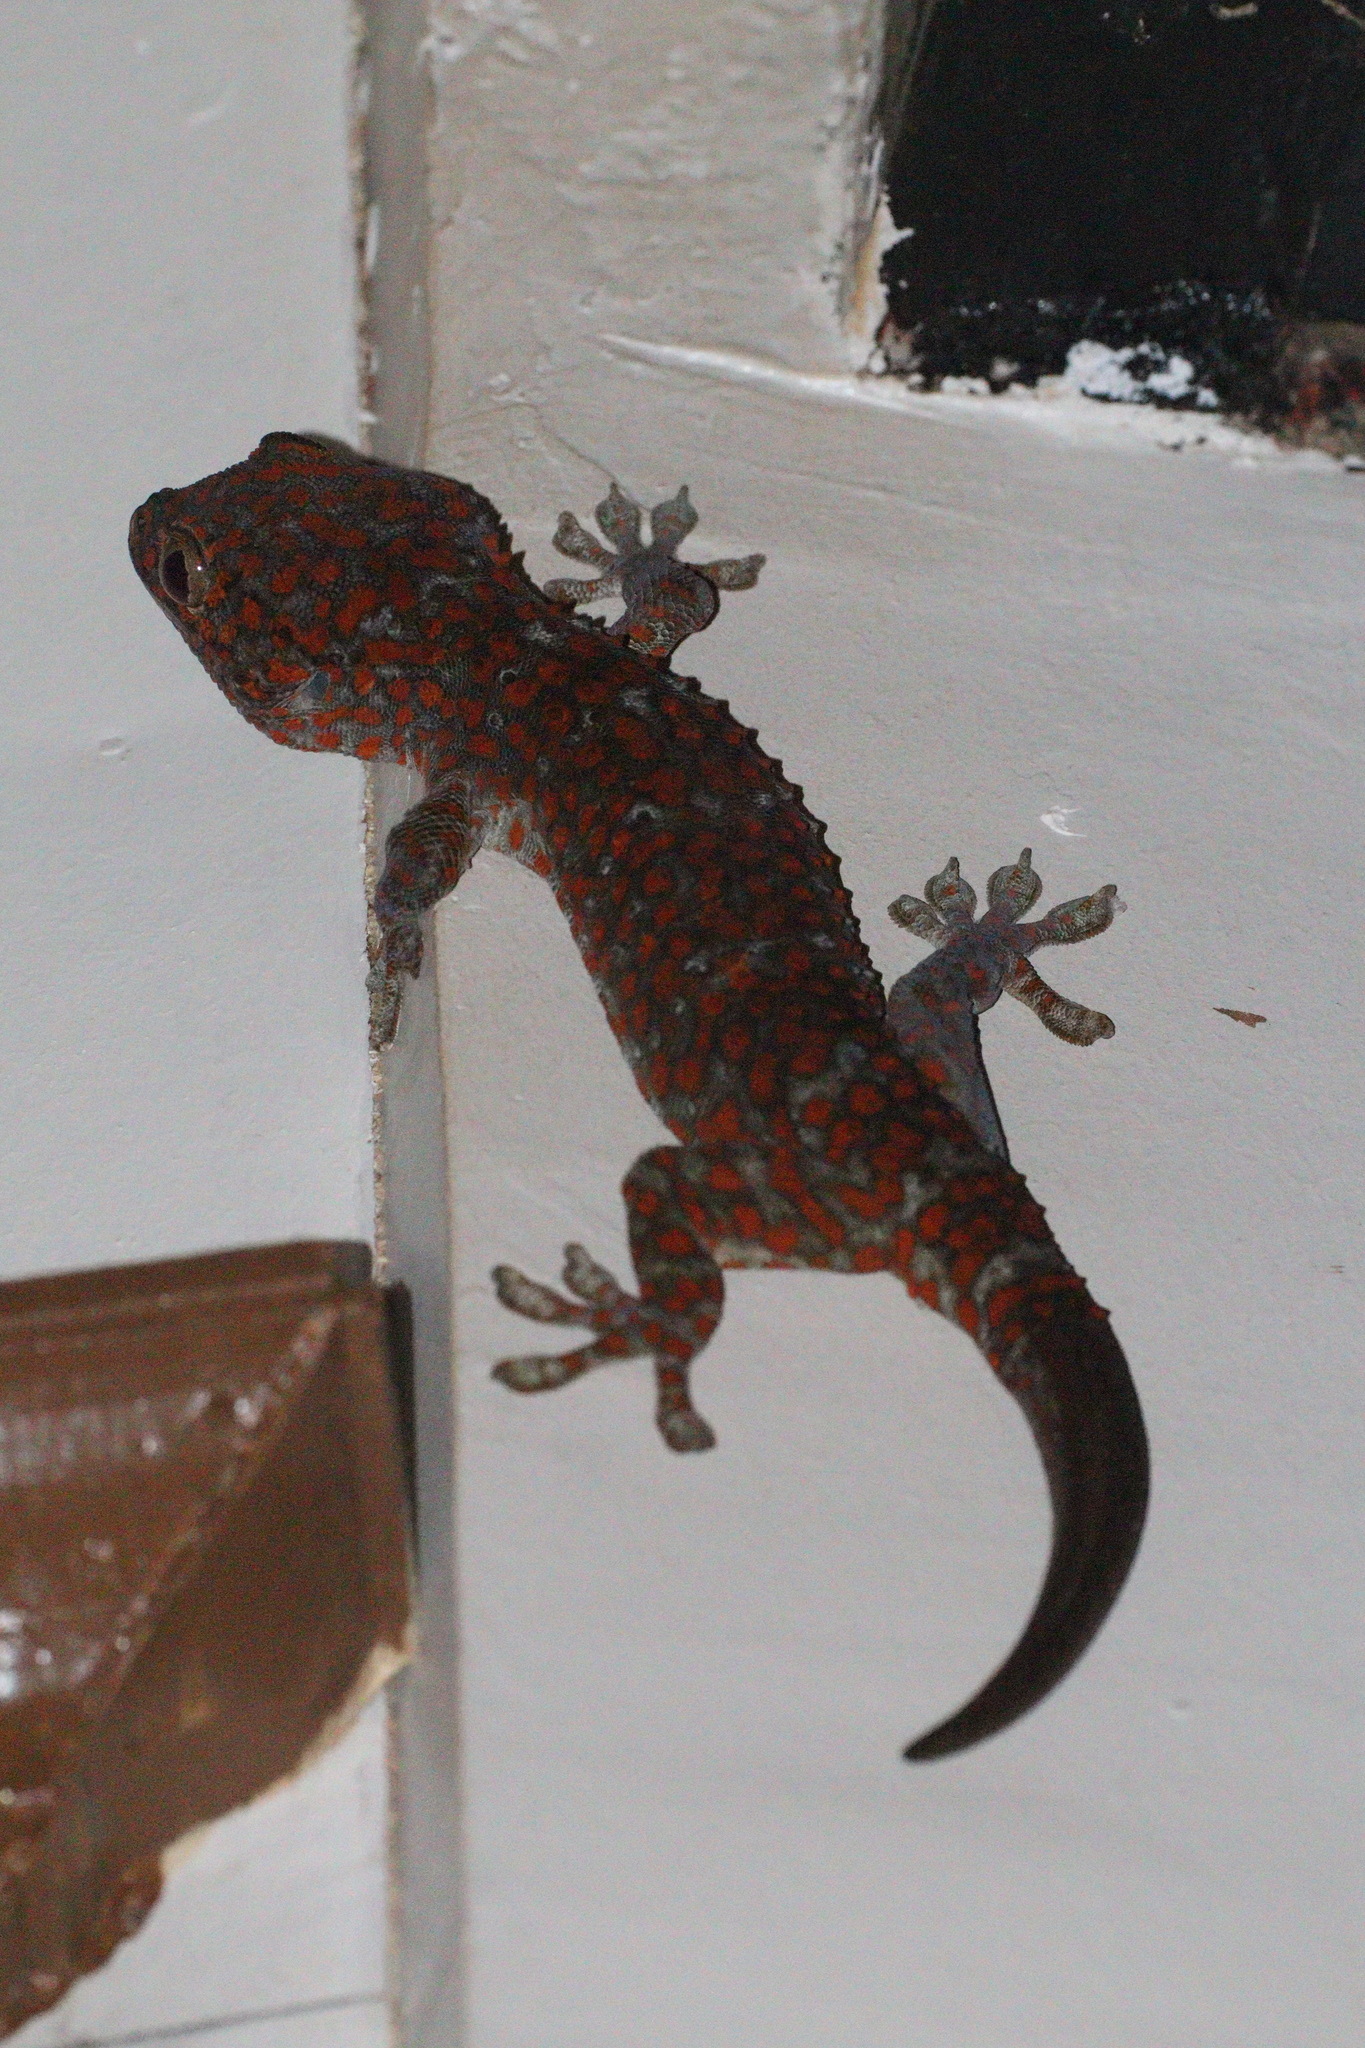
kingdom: Animalia
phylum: Chordata
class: Squamata
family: Gekkonidae
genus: Gekko
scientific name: Gekko gecko
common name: Tokay gecko
